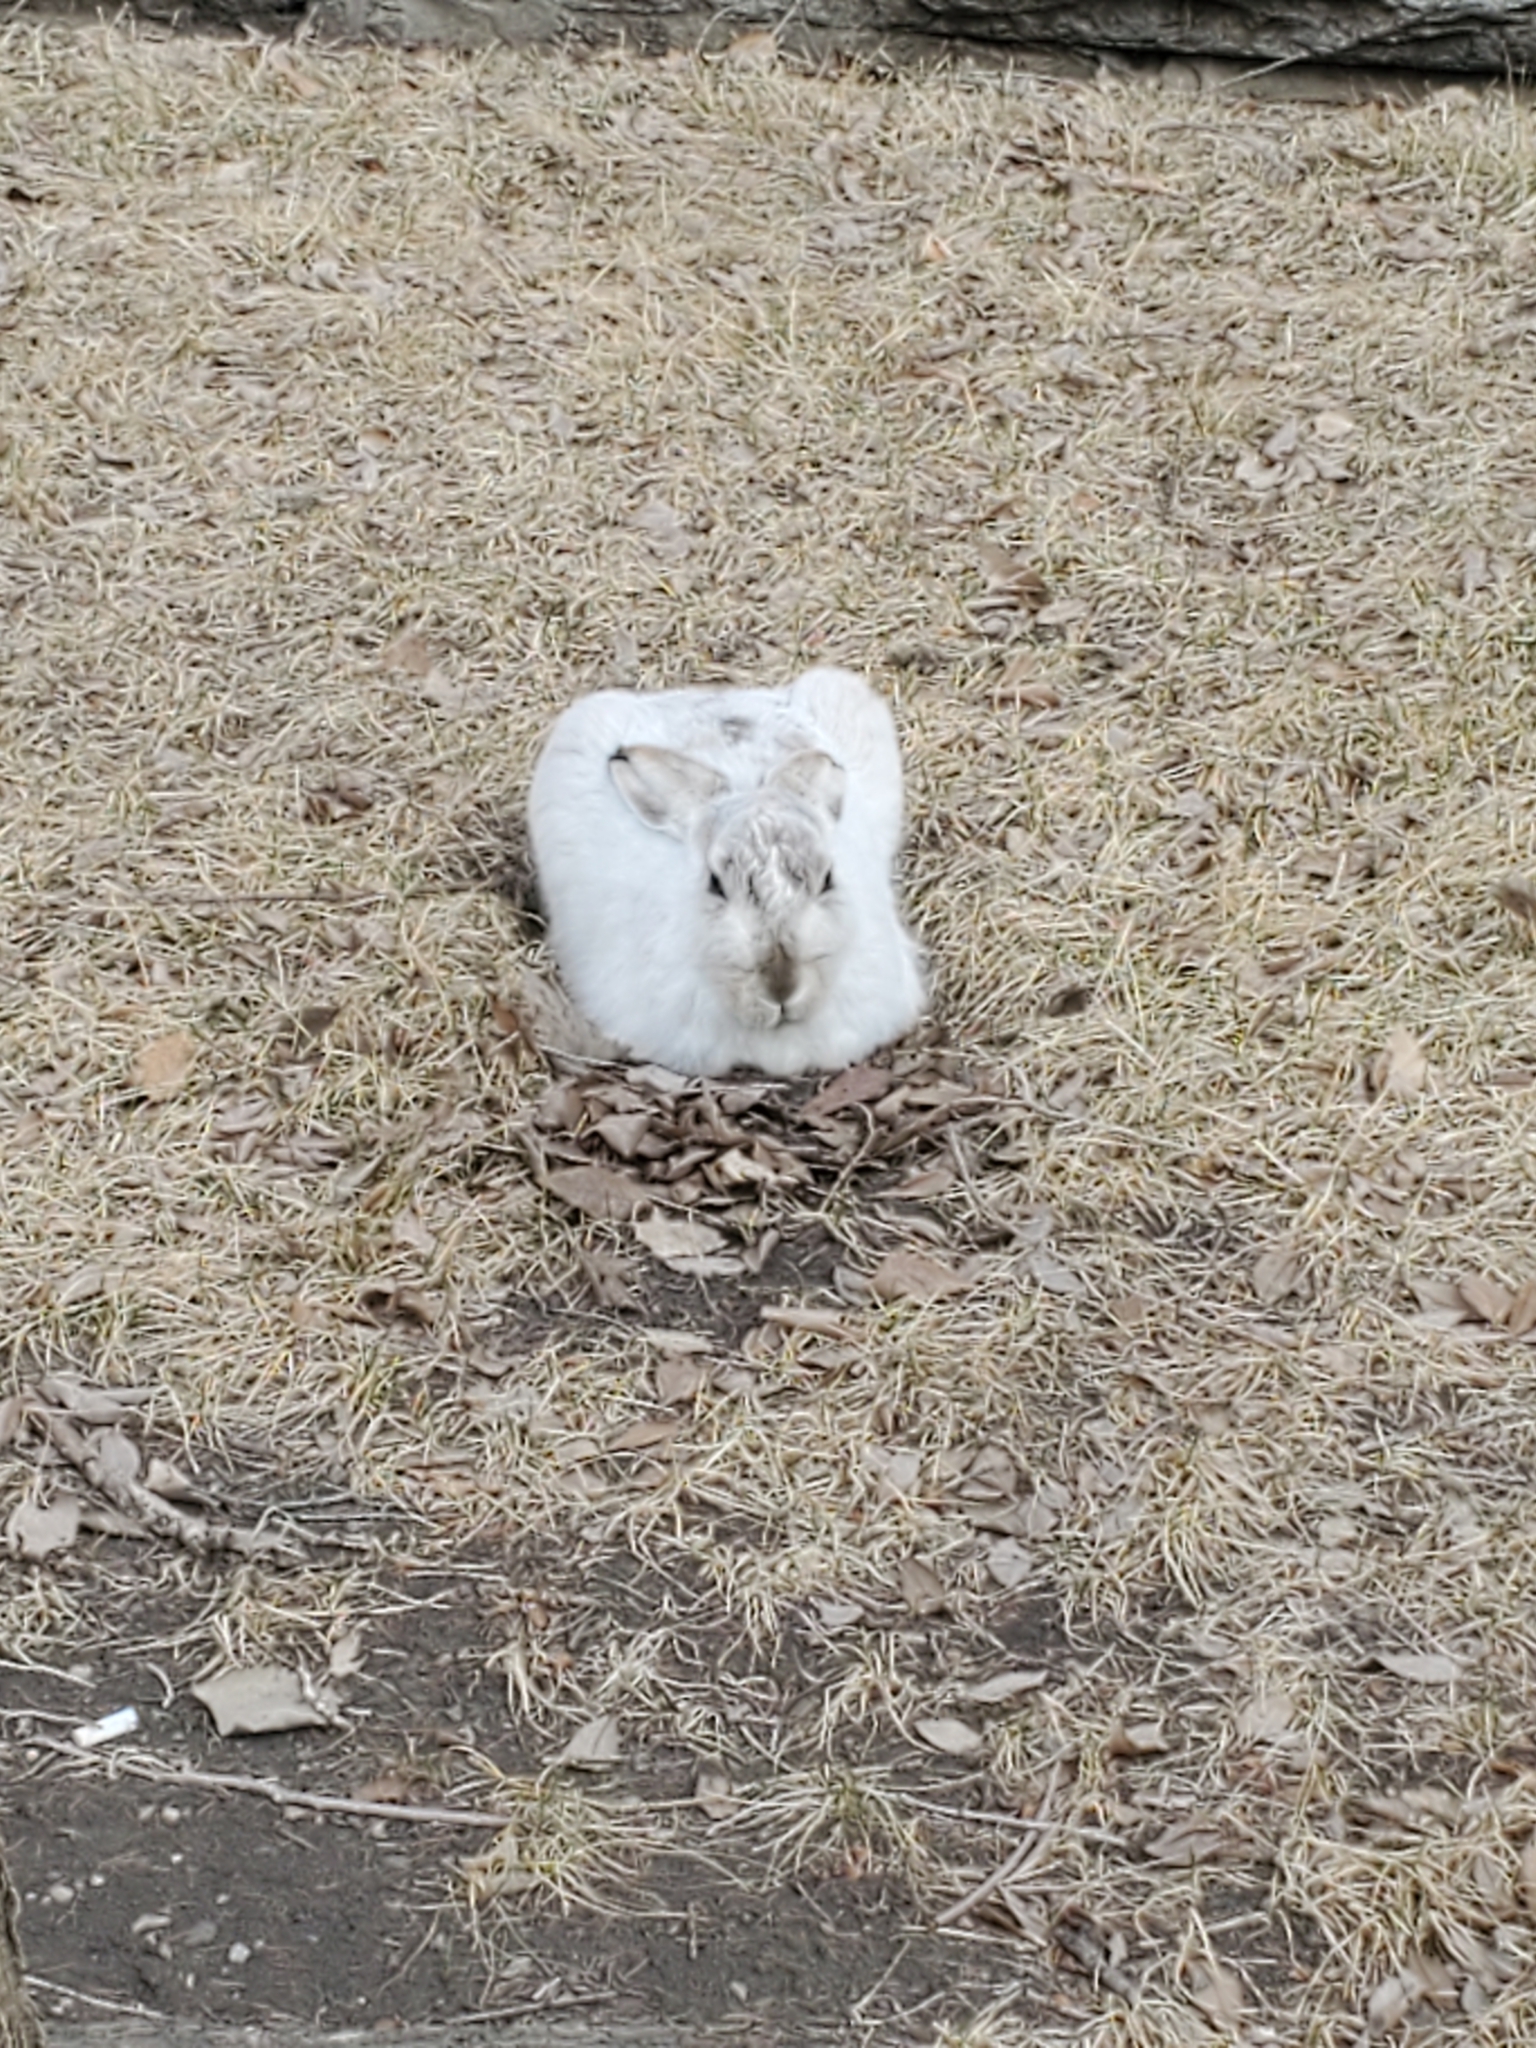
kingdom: Animalia
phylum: Chordata
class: Mammalia
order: Lagomorpha
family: Leporidae
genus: Lepus
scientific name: Lepus townsendii
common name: White-tailed jackrabbit
